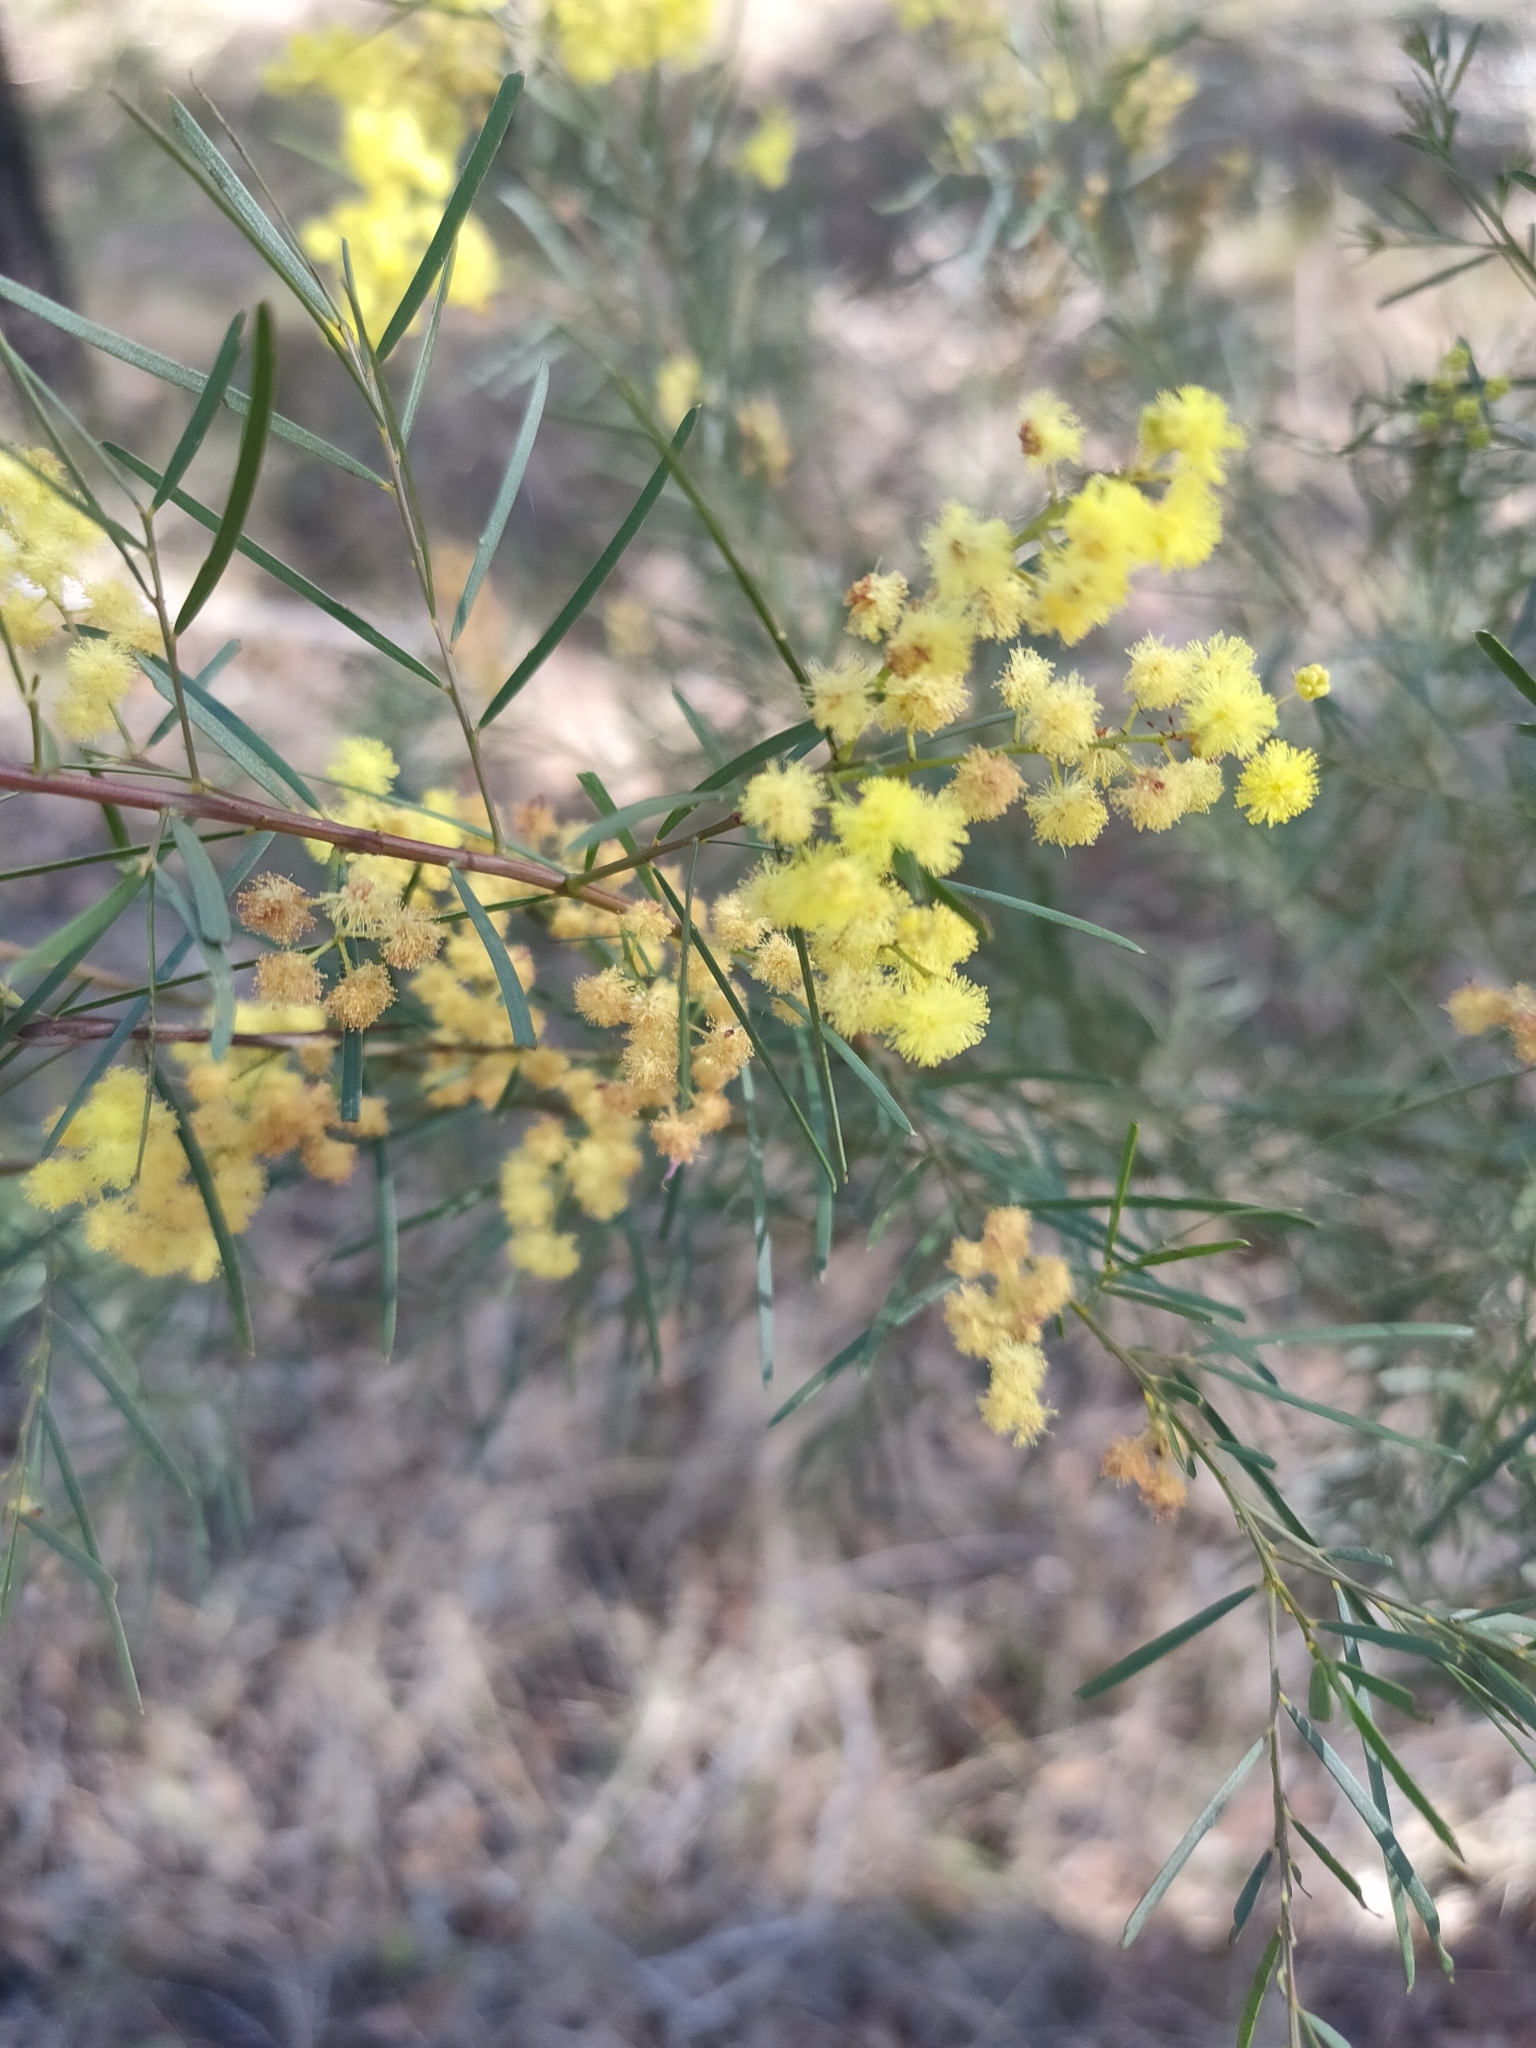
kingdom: Plantae
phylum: Tracheophyta
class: Magnoliopsida
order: Fabales
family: Fabaceae
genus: Acacia
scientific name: Acacia fimbriata
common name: Brisbane golden wattle
